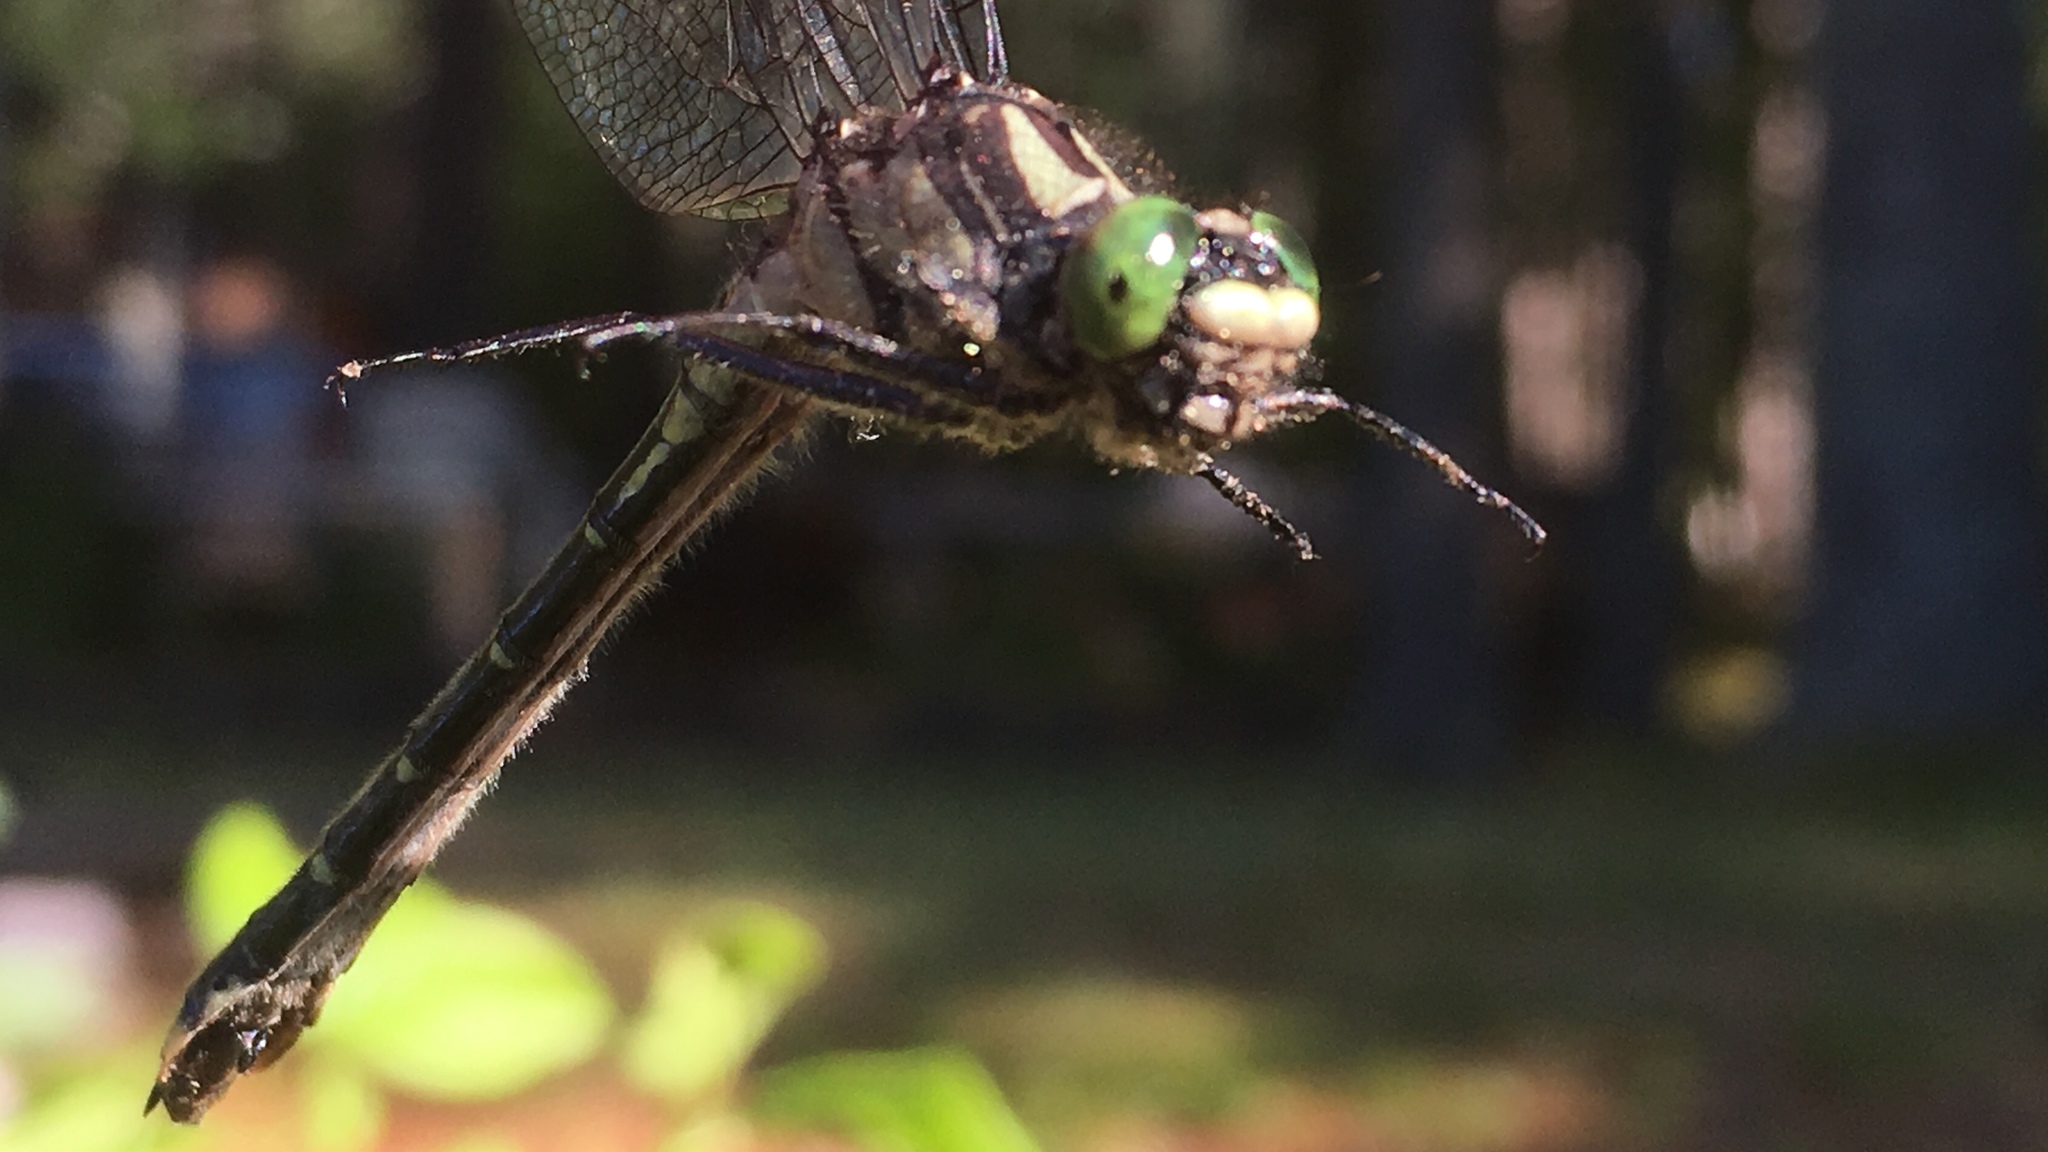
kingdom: Animalia
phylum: Arthropoda
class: Insecta
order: Odonata
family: Gomphidae
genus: Hylogomphus
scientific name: Hylogomphus adelphus
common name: Mustached clubtail
